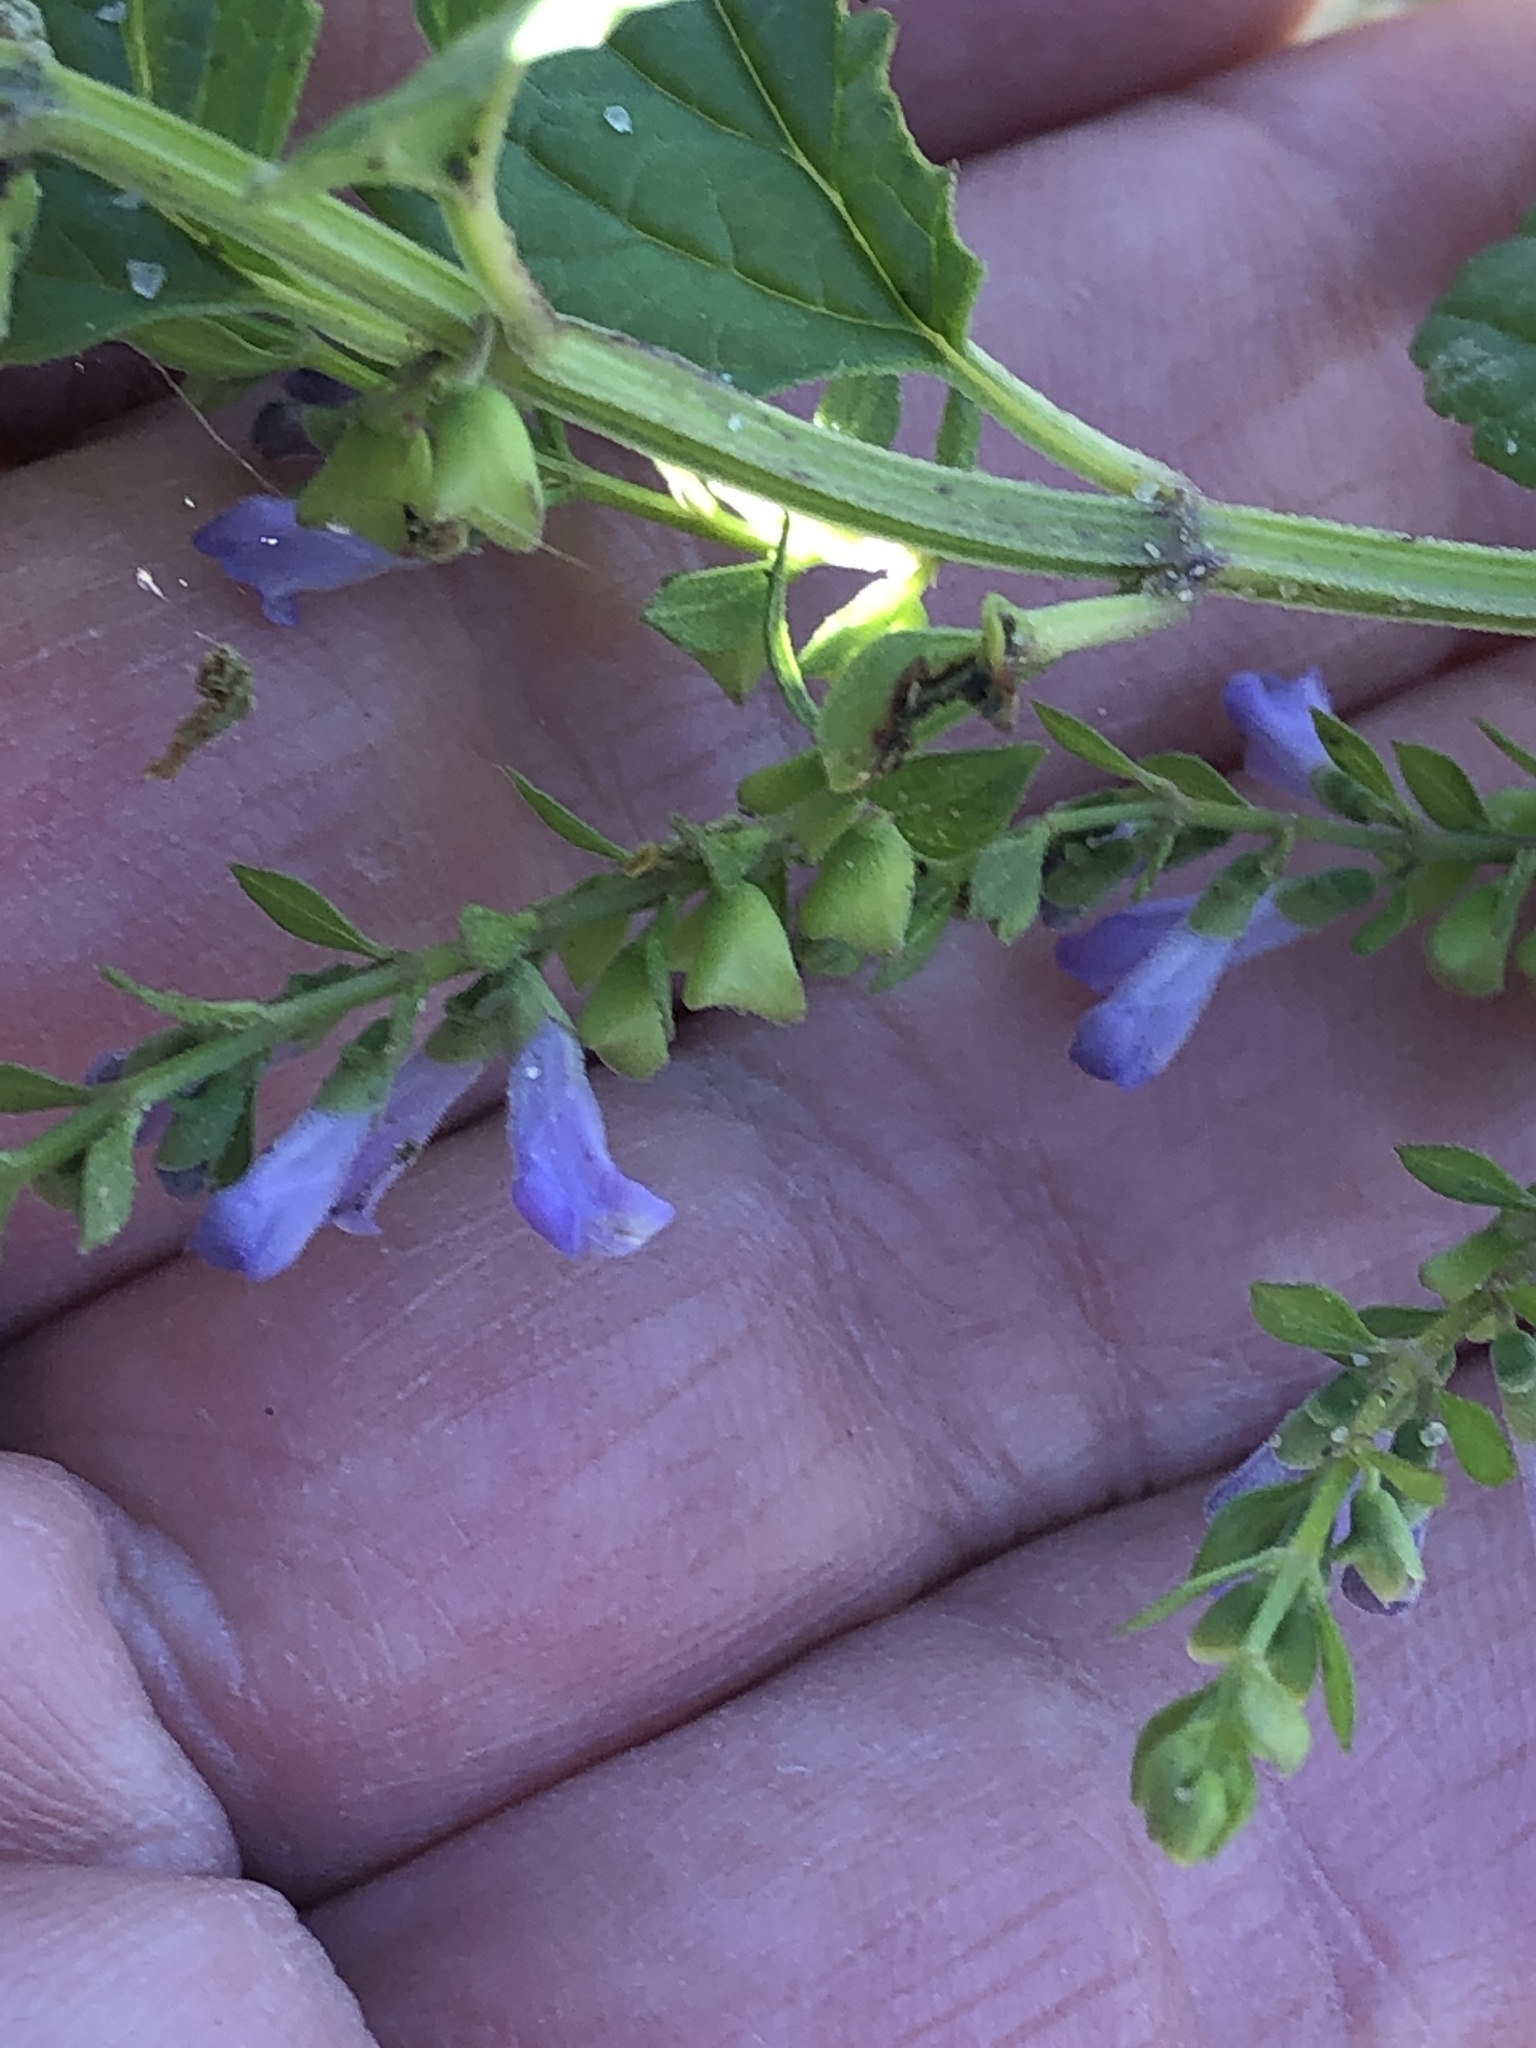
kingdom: Plantae
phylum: Tracheophyta
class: Magnoliopsida
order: Lamiales
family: Lamiaceae
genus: Scutellaria
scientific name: Scutellaria lateriflora
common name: Blue skullcap
